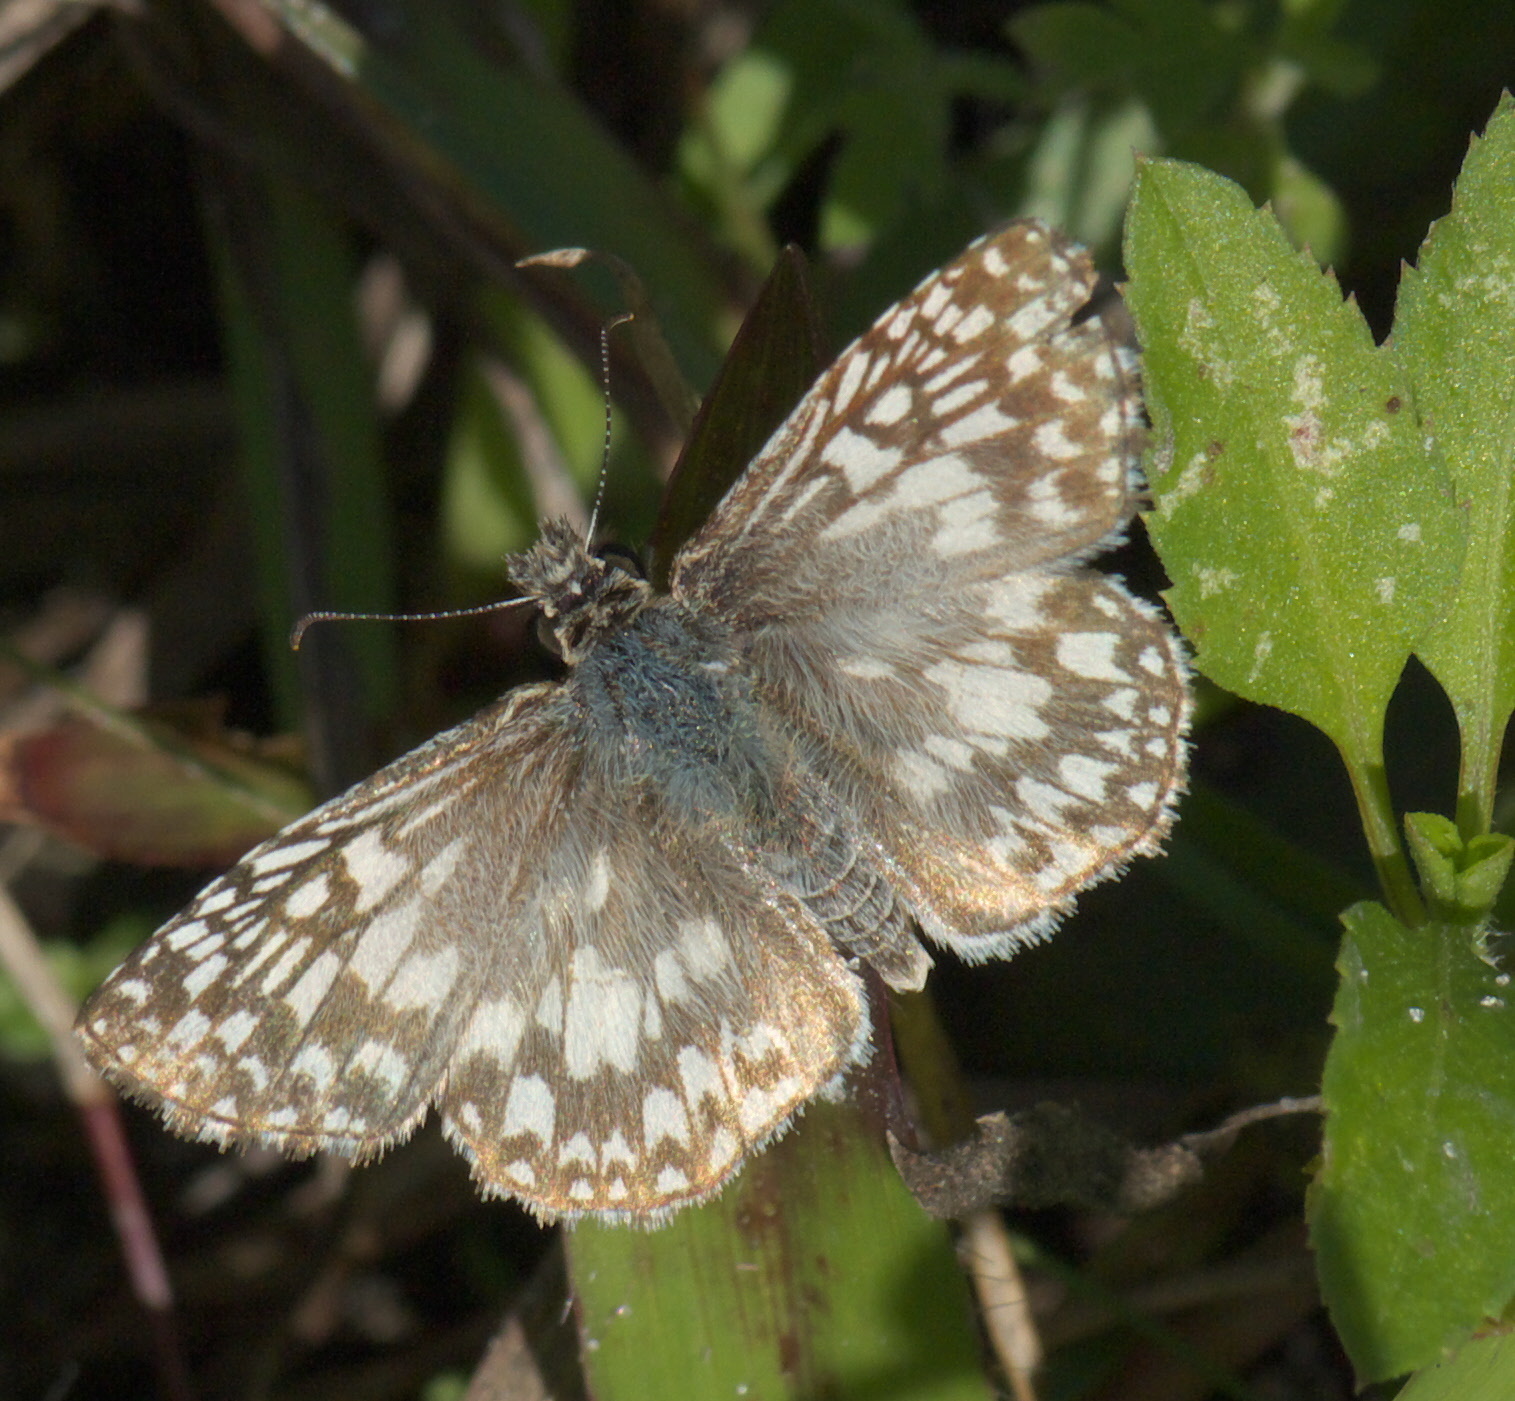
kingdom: Animalia
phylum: Arthropoda
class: Insecta
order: Lepidoptera
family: Hesperiidae
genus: Pyrgus
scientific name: Pyrgus oileus
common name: Tropical checkered-skipper
